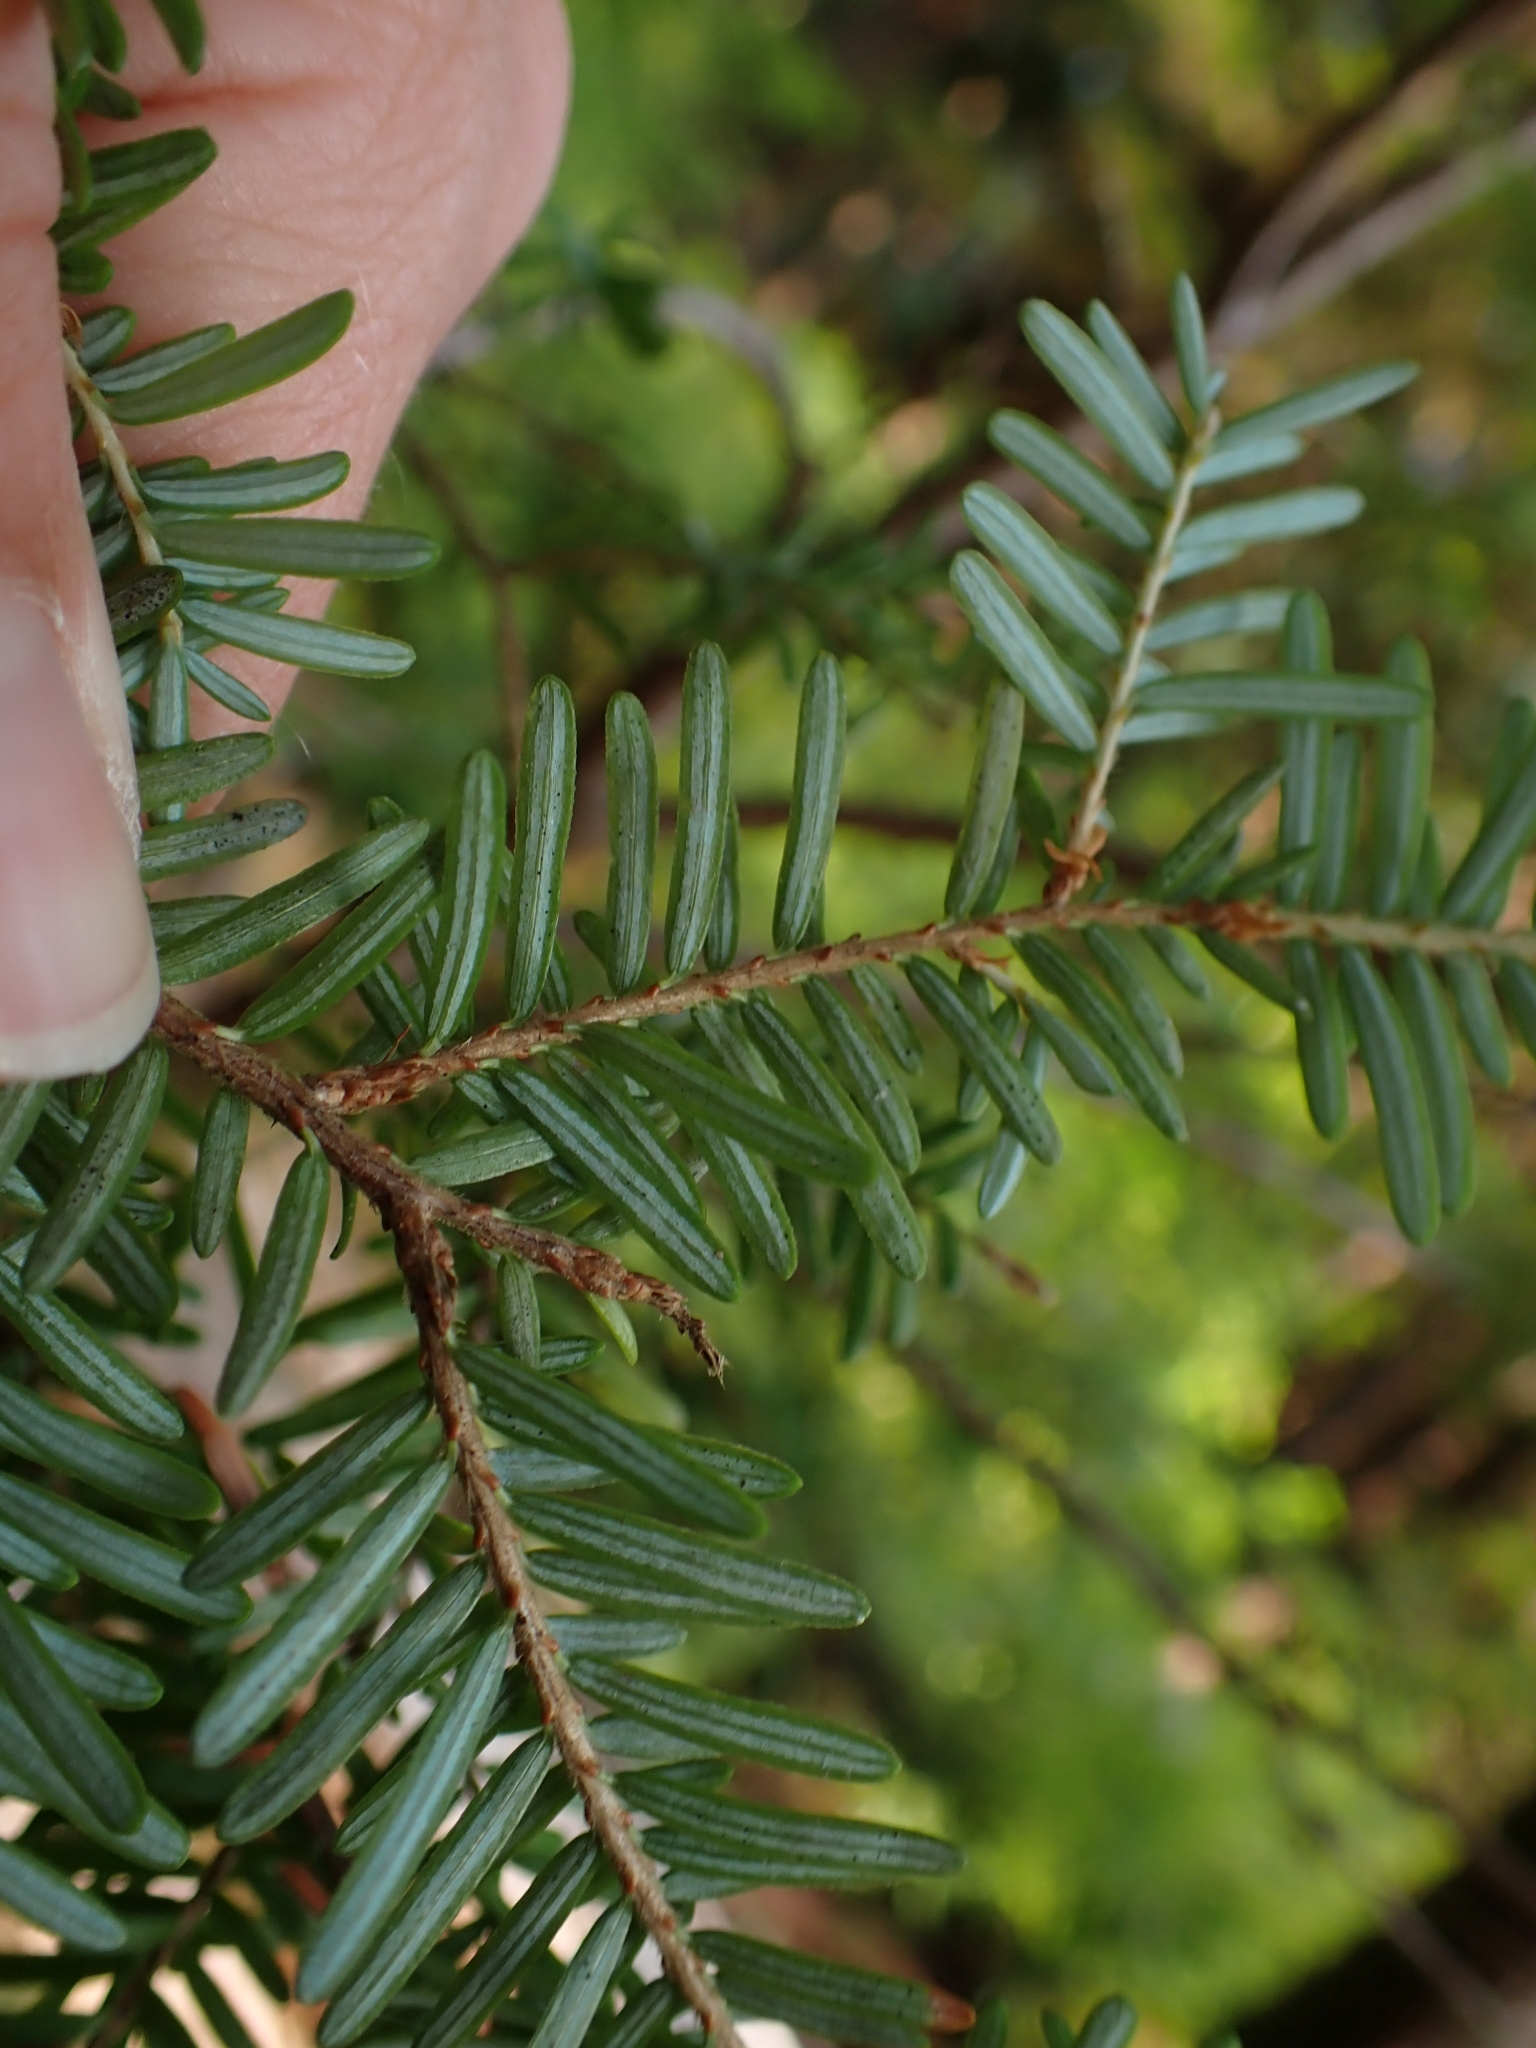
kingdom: Plantae
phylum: Tracheophyta
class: Pinopsida
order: Pinales
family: Pinaceae
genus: Tsuga
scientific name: Tsuga heterophylla
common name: Western hemlock
